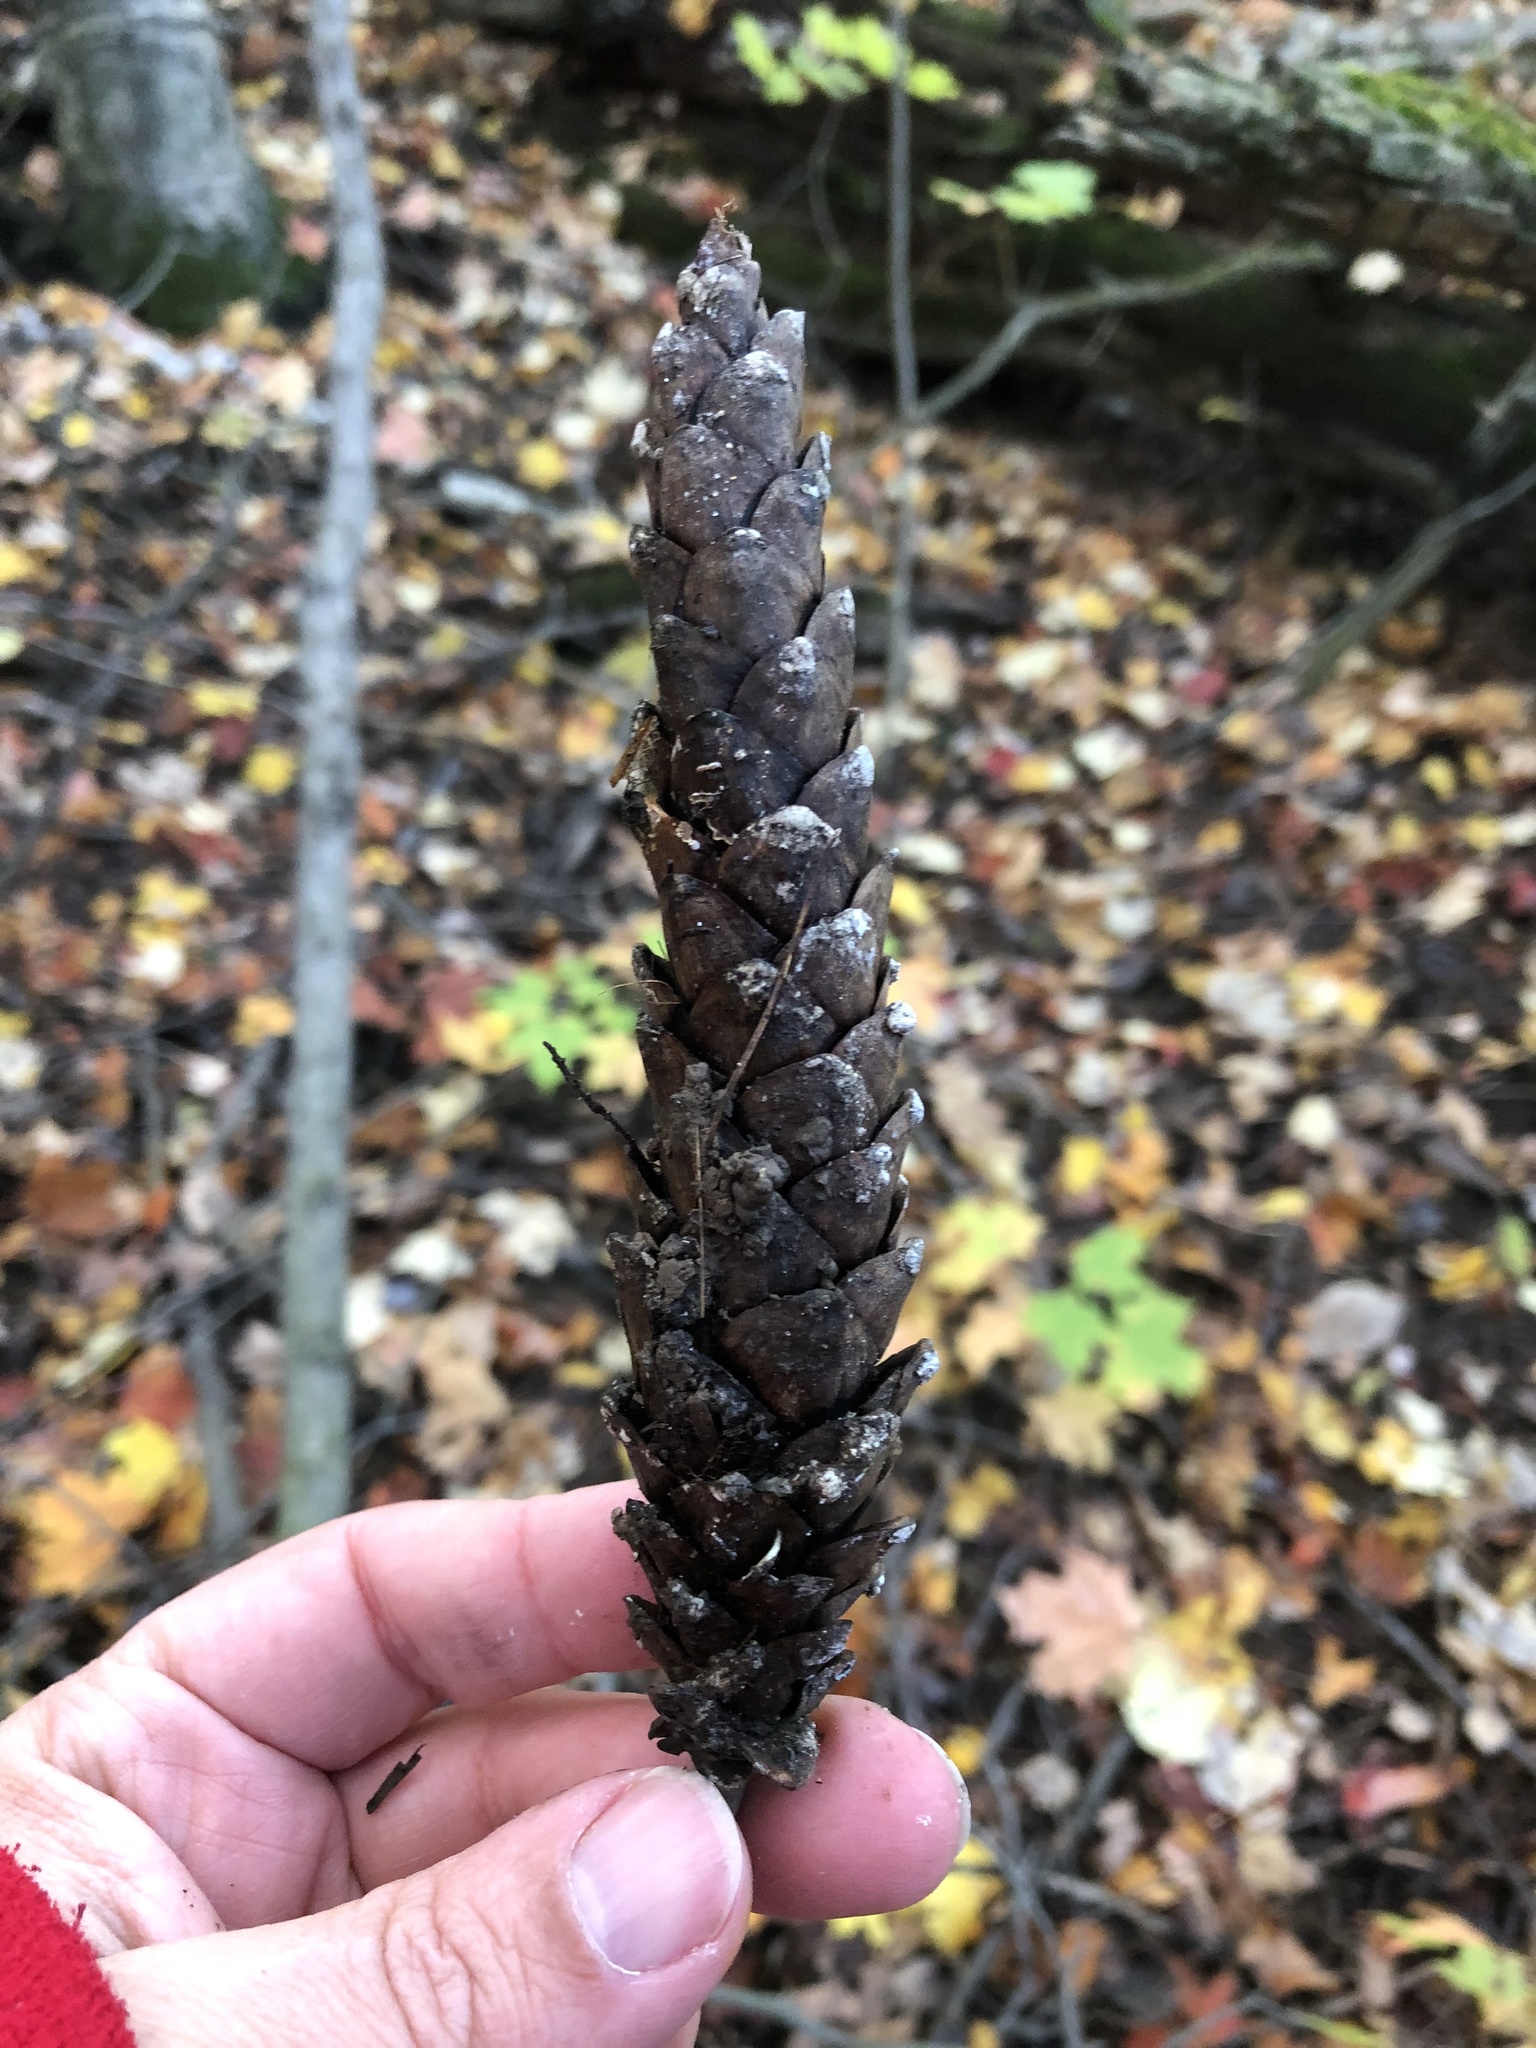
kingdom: Plantae
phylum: Tracheophyta
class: Pinopsida
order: Pinales
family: Pinaceae
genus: Pinus
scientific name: Pinus strobus
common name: Weymouth pine
